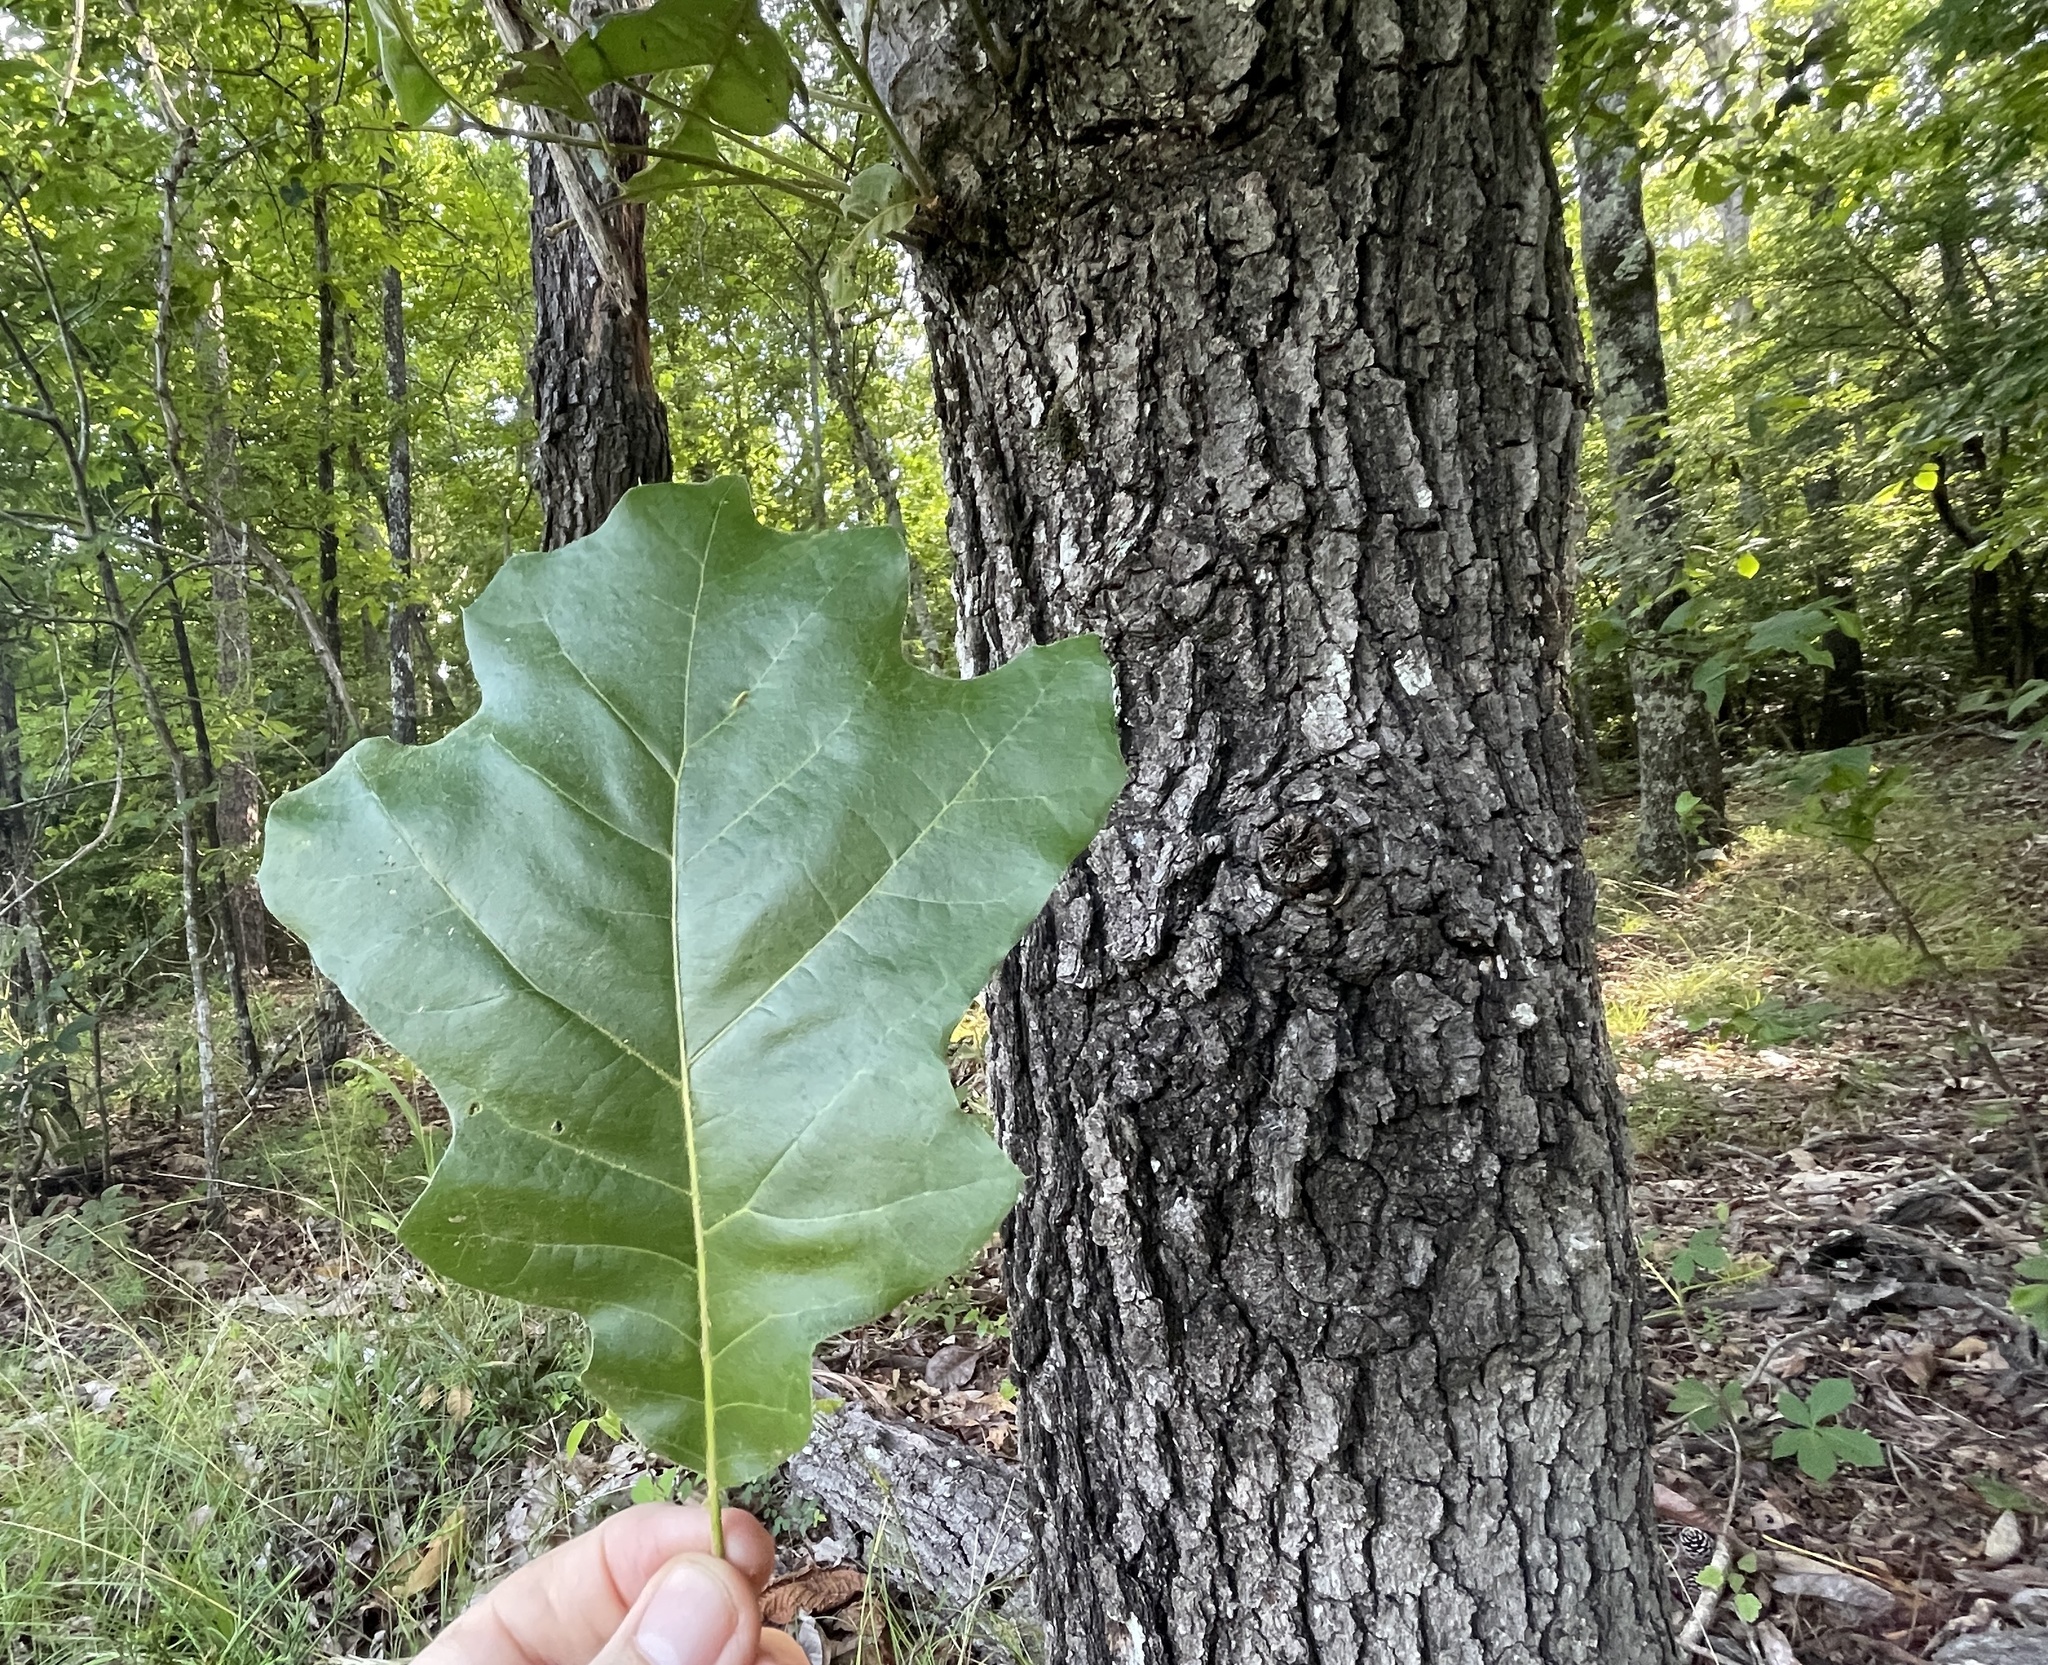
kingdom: Plantae
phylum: Tracheophyta
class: Magnoliopsida
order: Fagales
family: Fagaceae
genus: Quercus
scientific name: Quercus velutina
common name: Black oak
